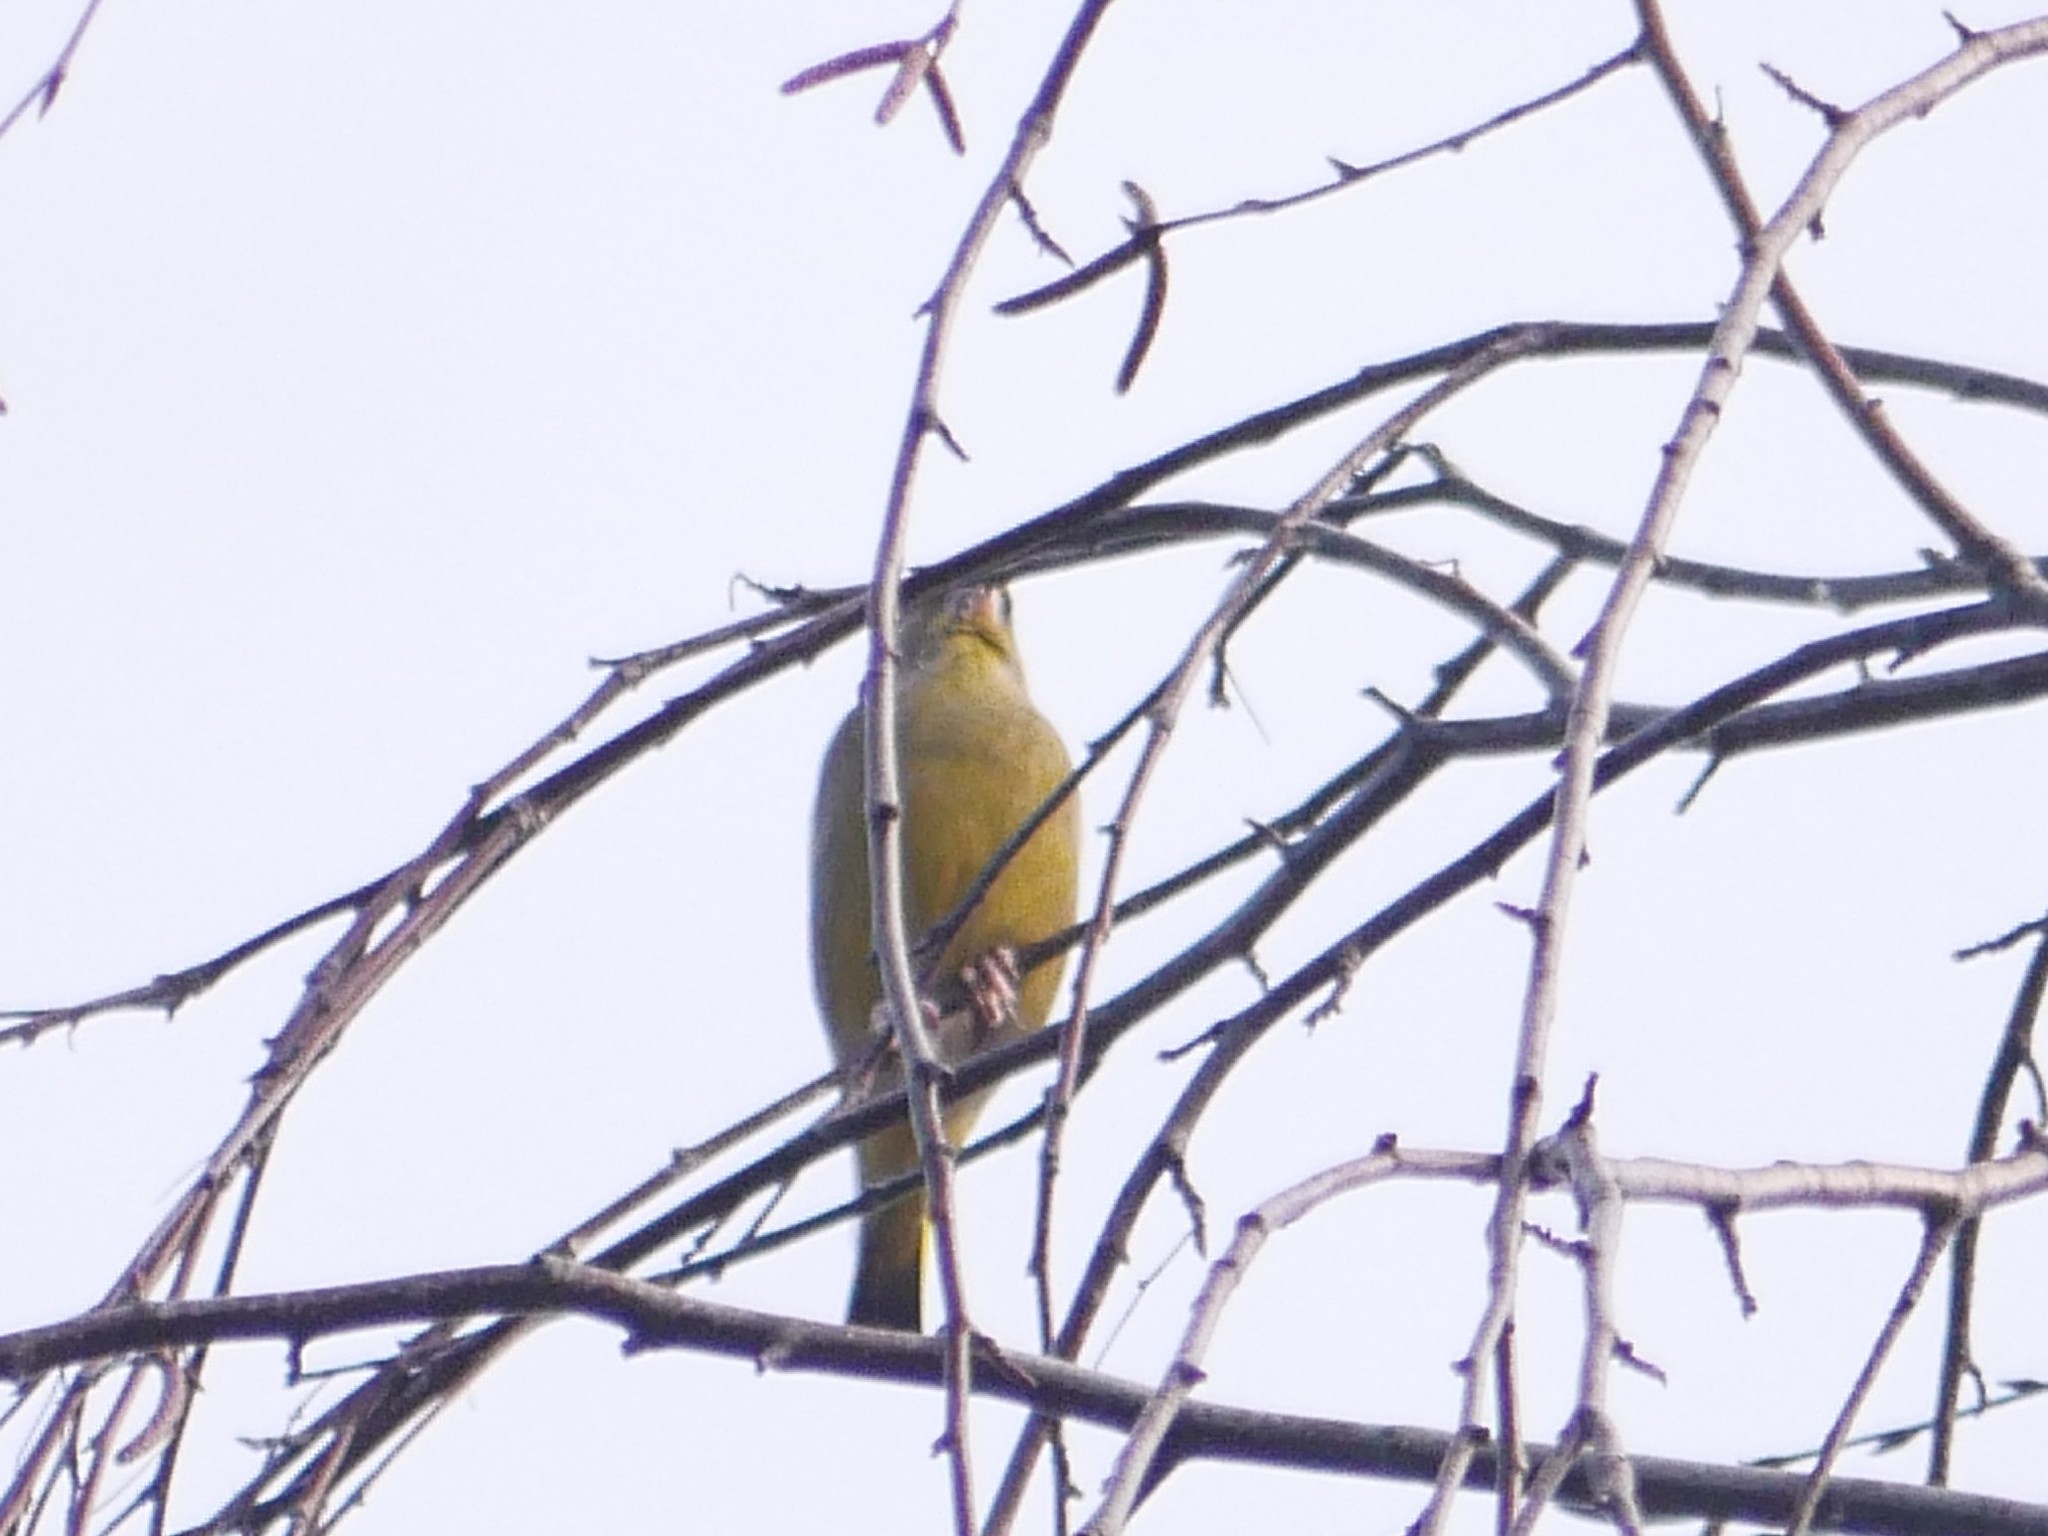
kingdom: Plantae
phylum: Tracheophyta
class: Liliopsida
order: Poales
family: Poaceae
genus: Chloris
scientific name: Chloris chloris
